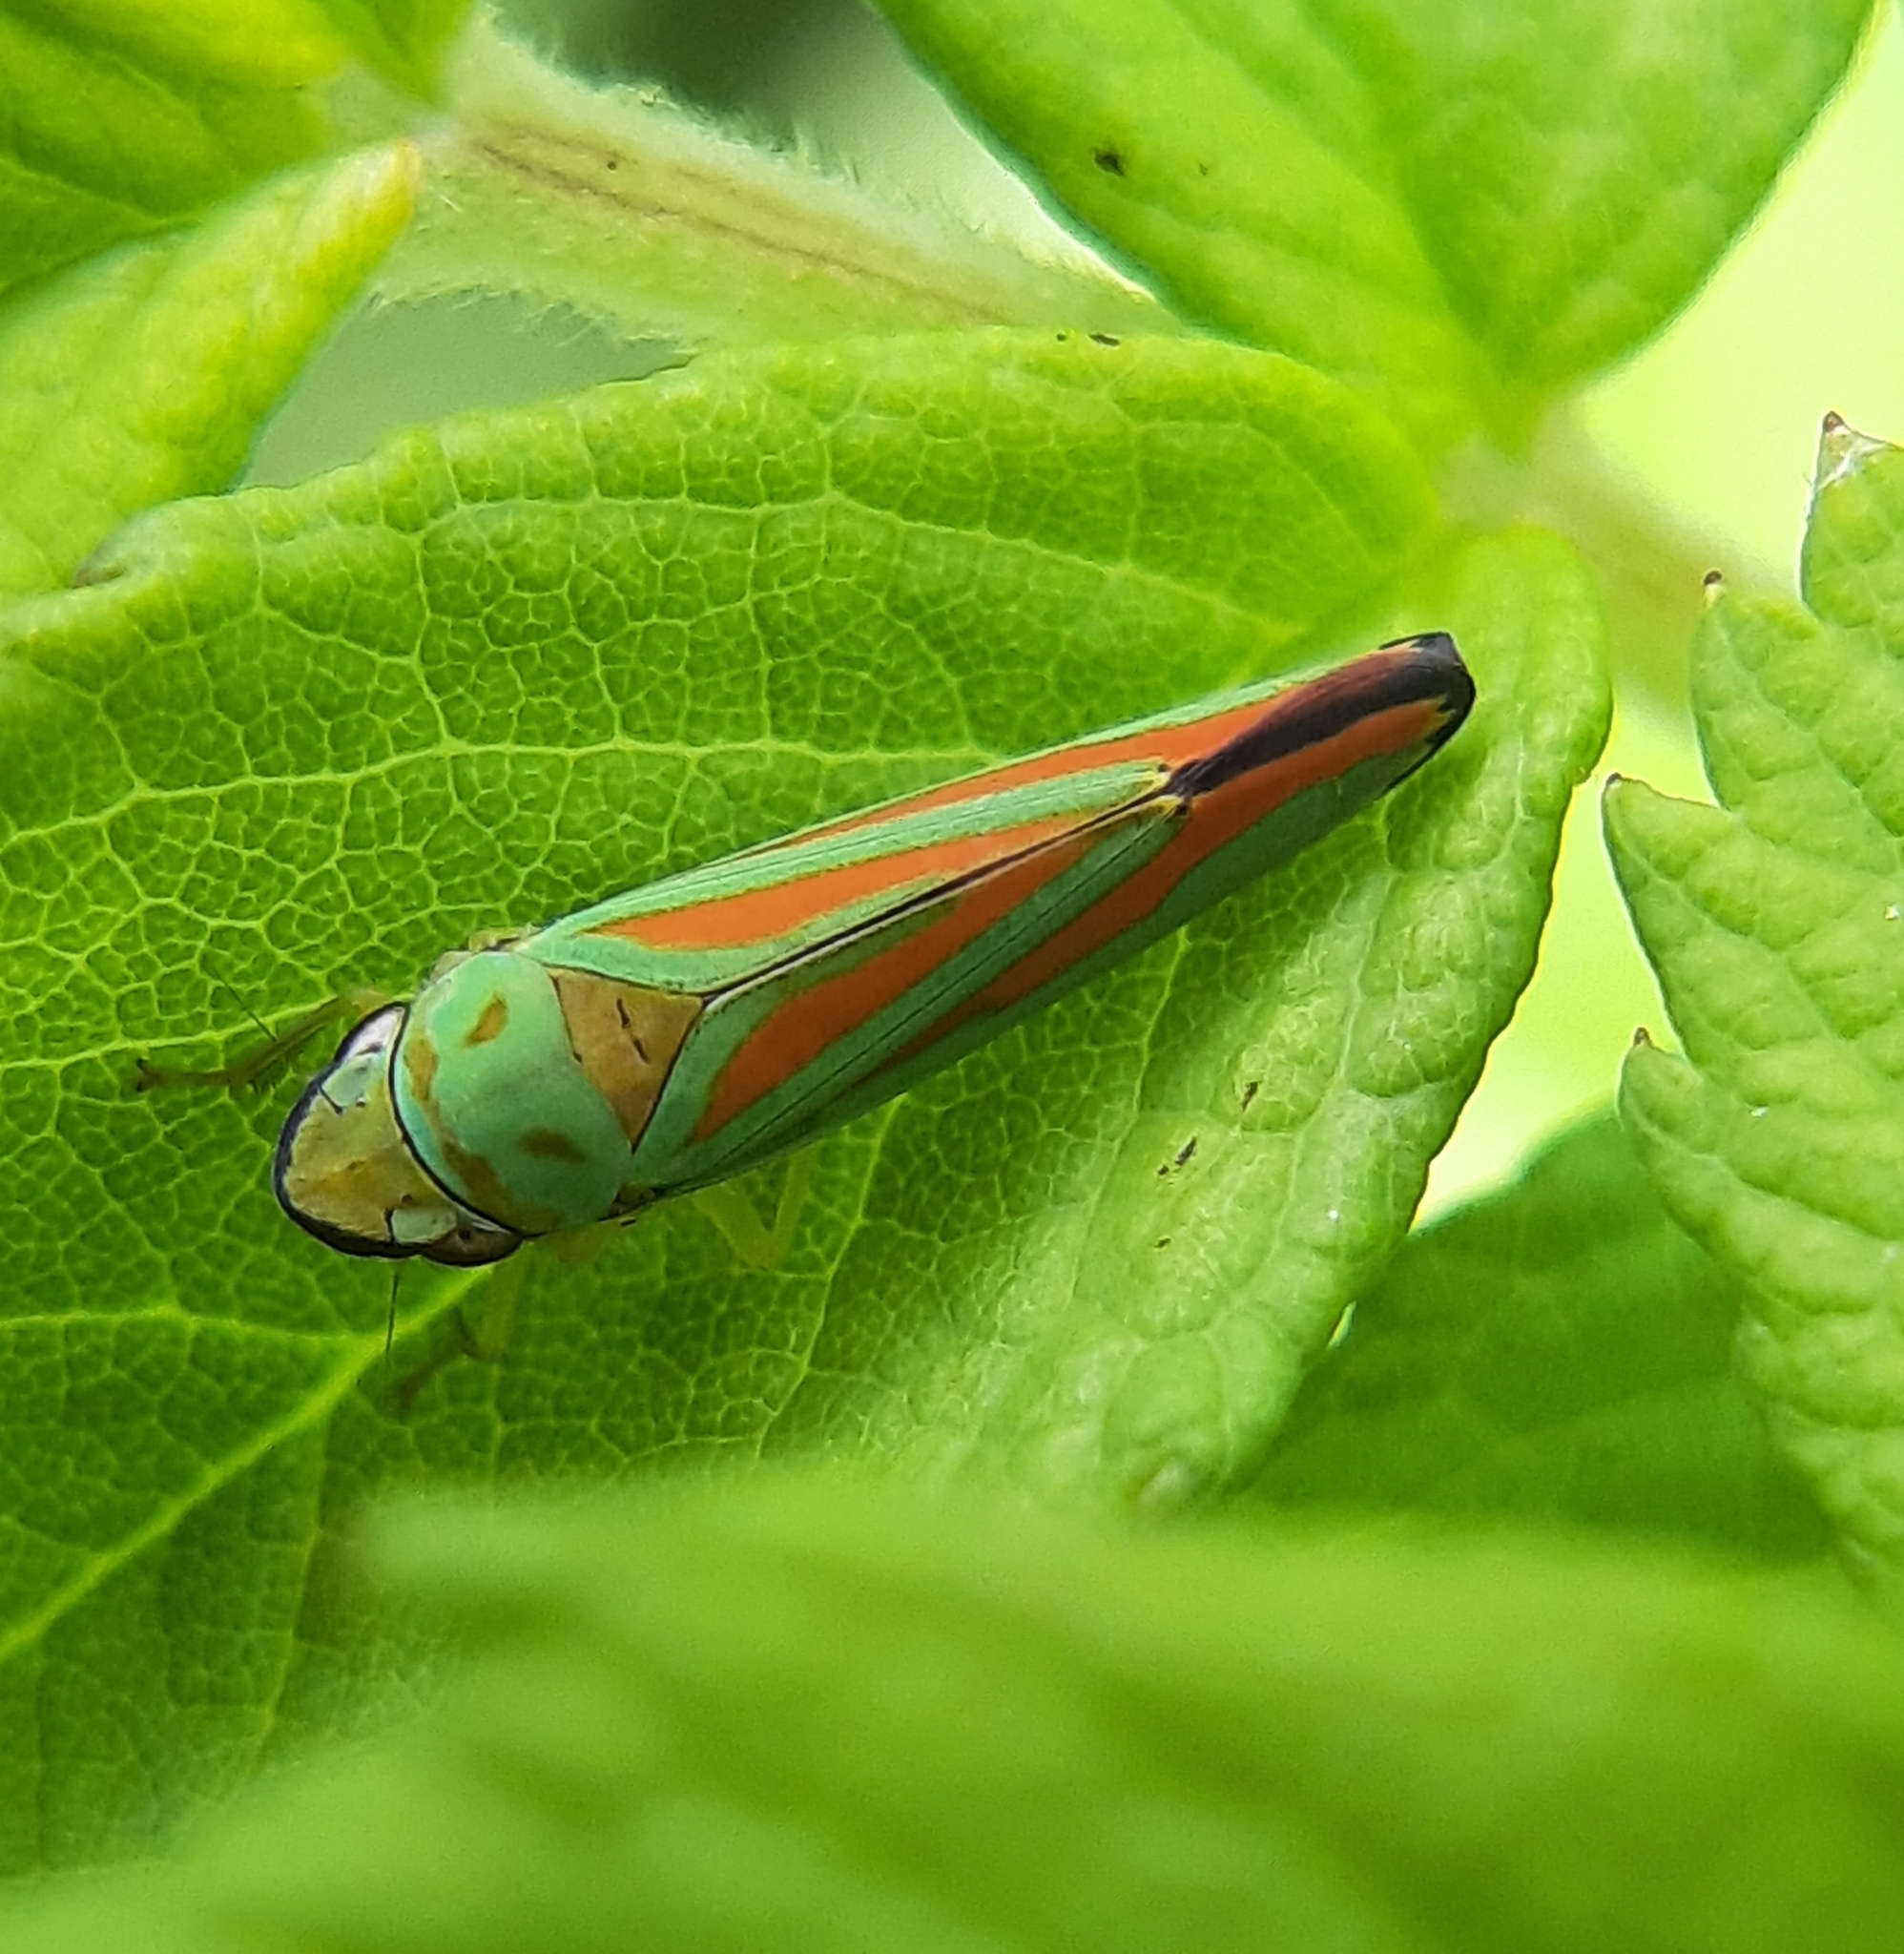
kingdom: Animalia
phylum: Arthropoda
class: Insecta
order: Hemiptera
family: Cicadellidae
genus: Graphocephala
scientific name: Graphocephala fennahi
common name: Rhododendron leafhopper
